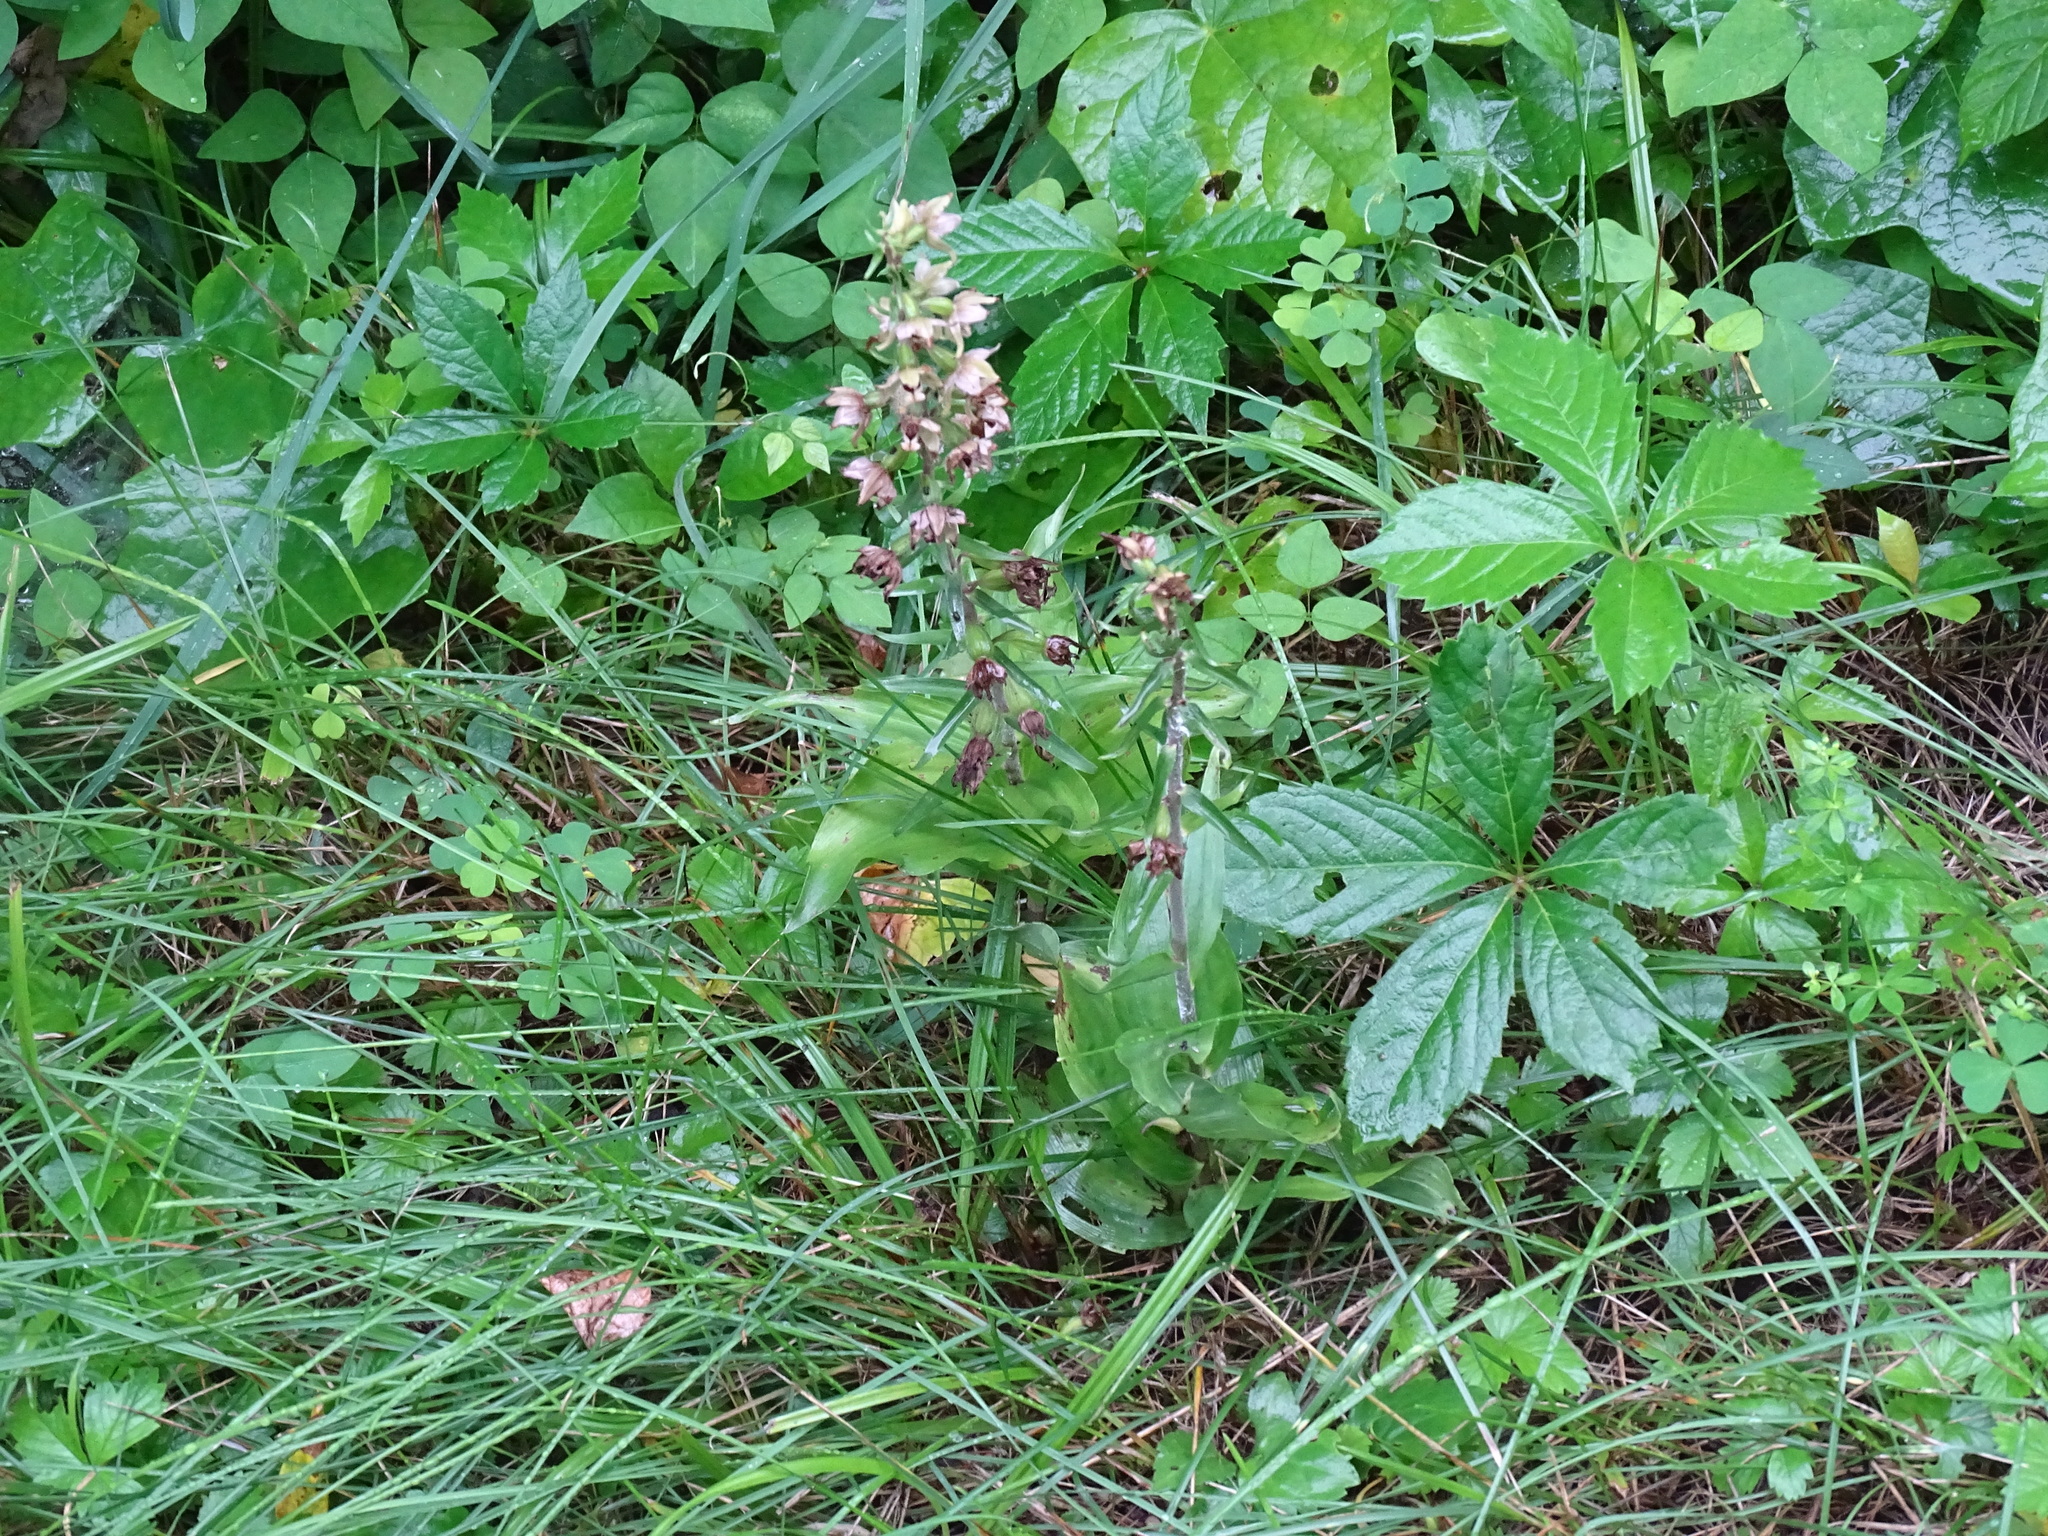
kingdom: Plantae
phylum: Tracheophyta
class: Liliopsida
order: Asparagales
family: Orchidaceae
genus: Epipactis
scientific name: Epipactis helleborine
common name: Broad-leaved helleborine
